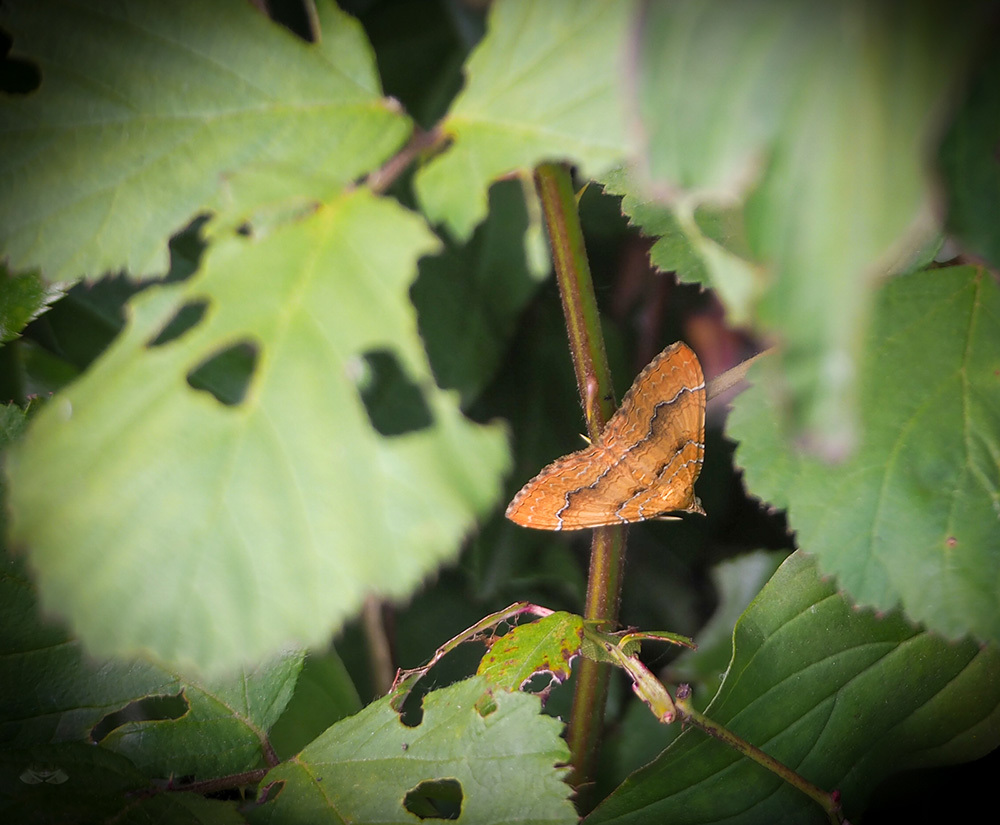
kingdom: Animalia
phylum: Arthropoda
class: Insecta
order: Lepidoptera
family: Geometridae
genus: Camptogramma
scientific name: Camptogramma bilineata
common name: Yellow shell
